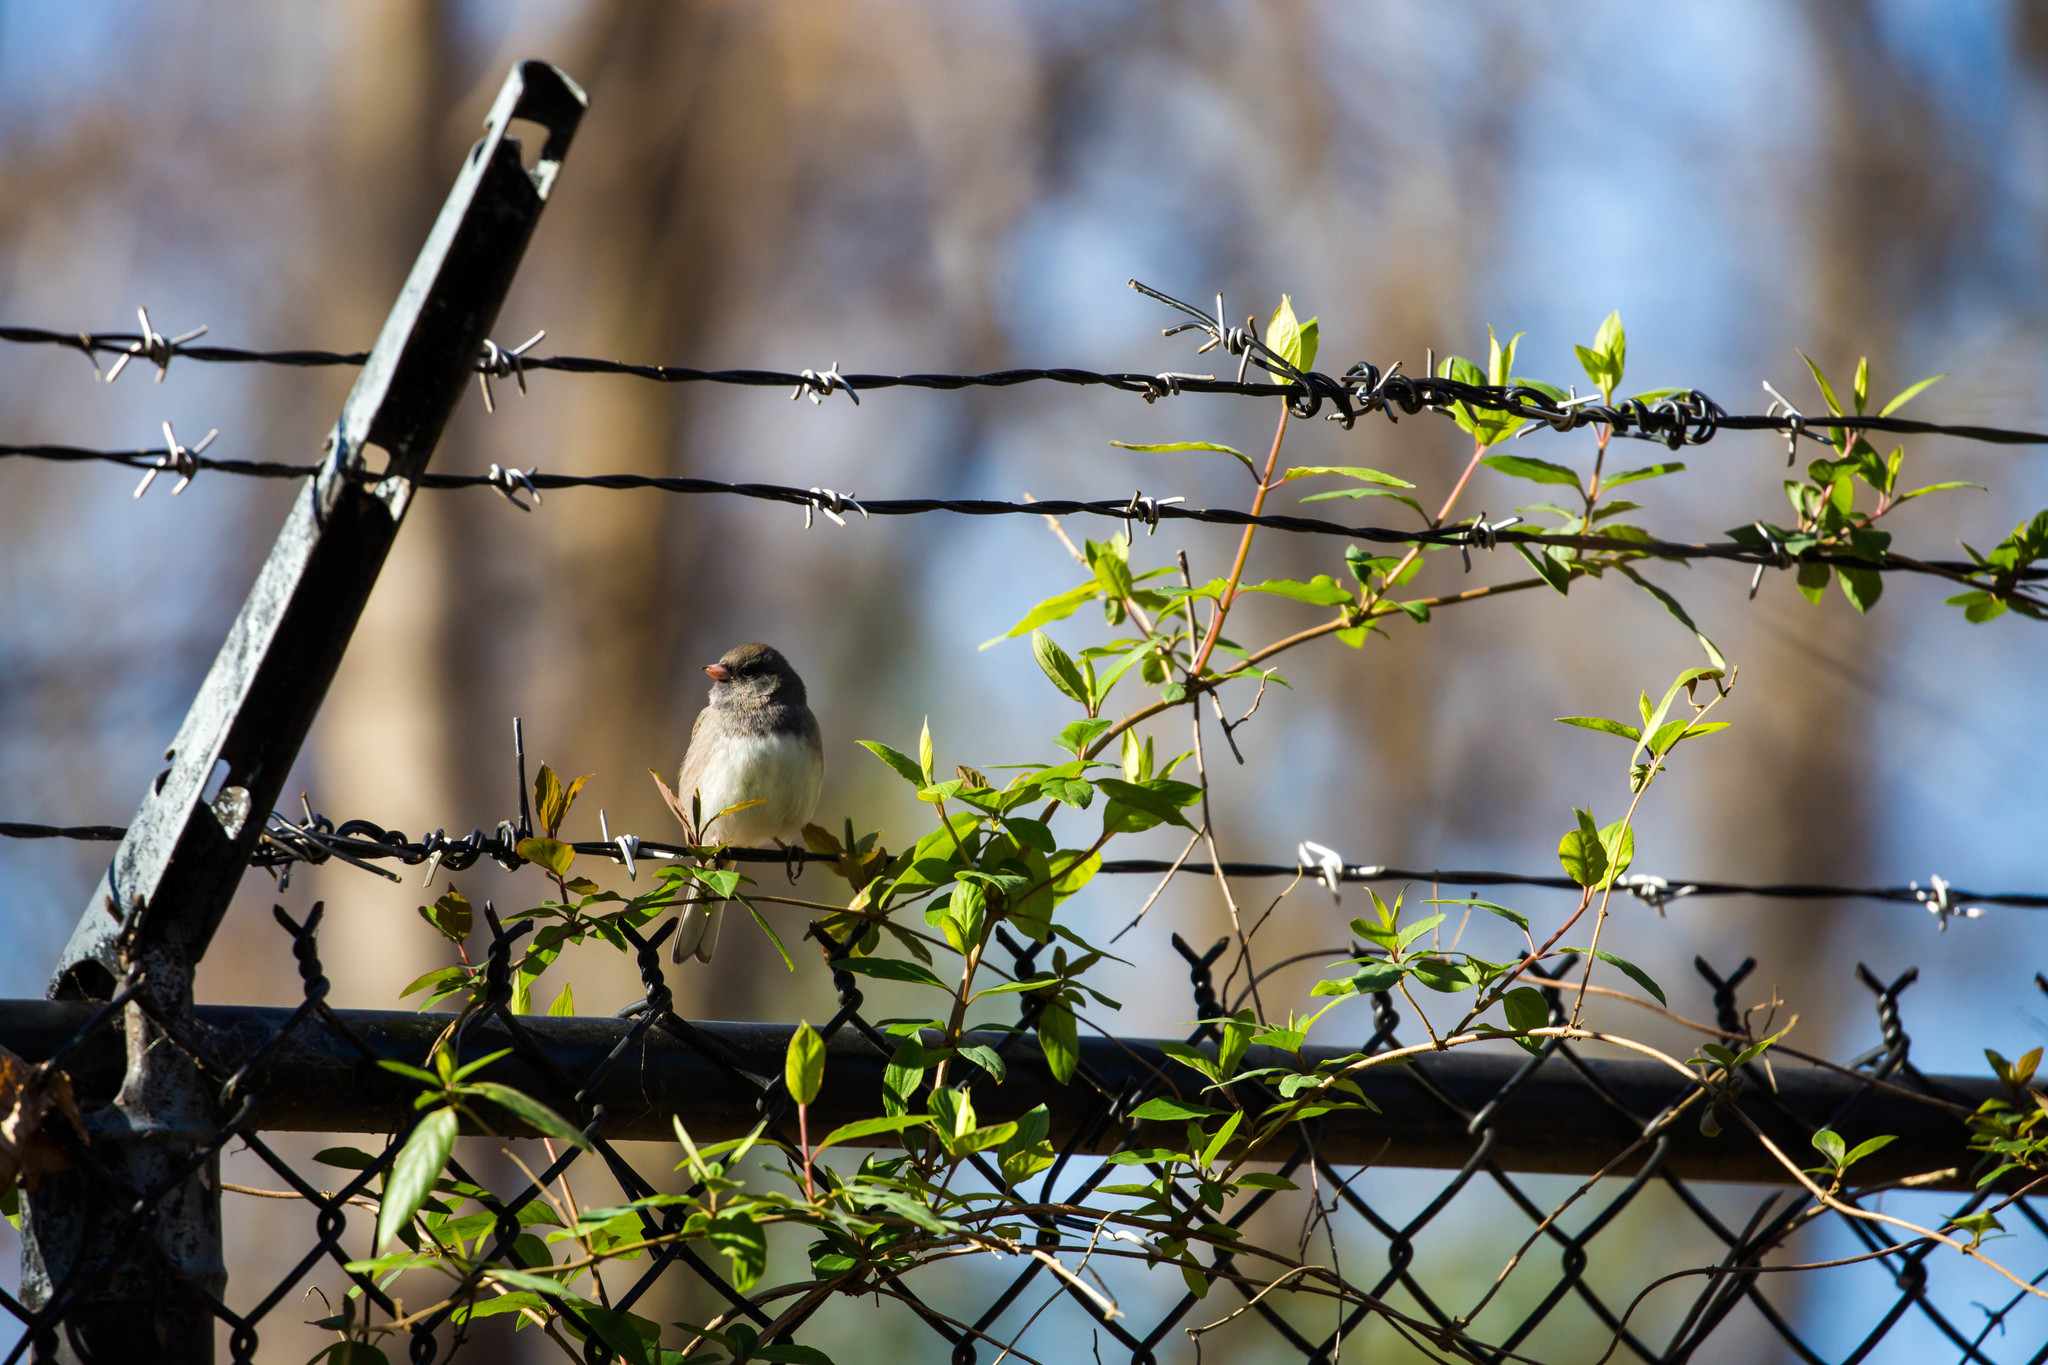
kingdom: Animalia
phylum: Chordata
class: Aves
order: Passeriformes
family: Passerellidae
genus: Junco
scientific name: Junco hyemalis
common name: Dark-eyed junco
